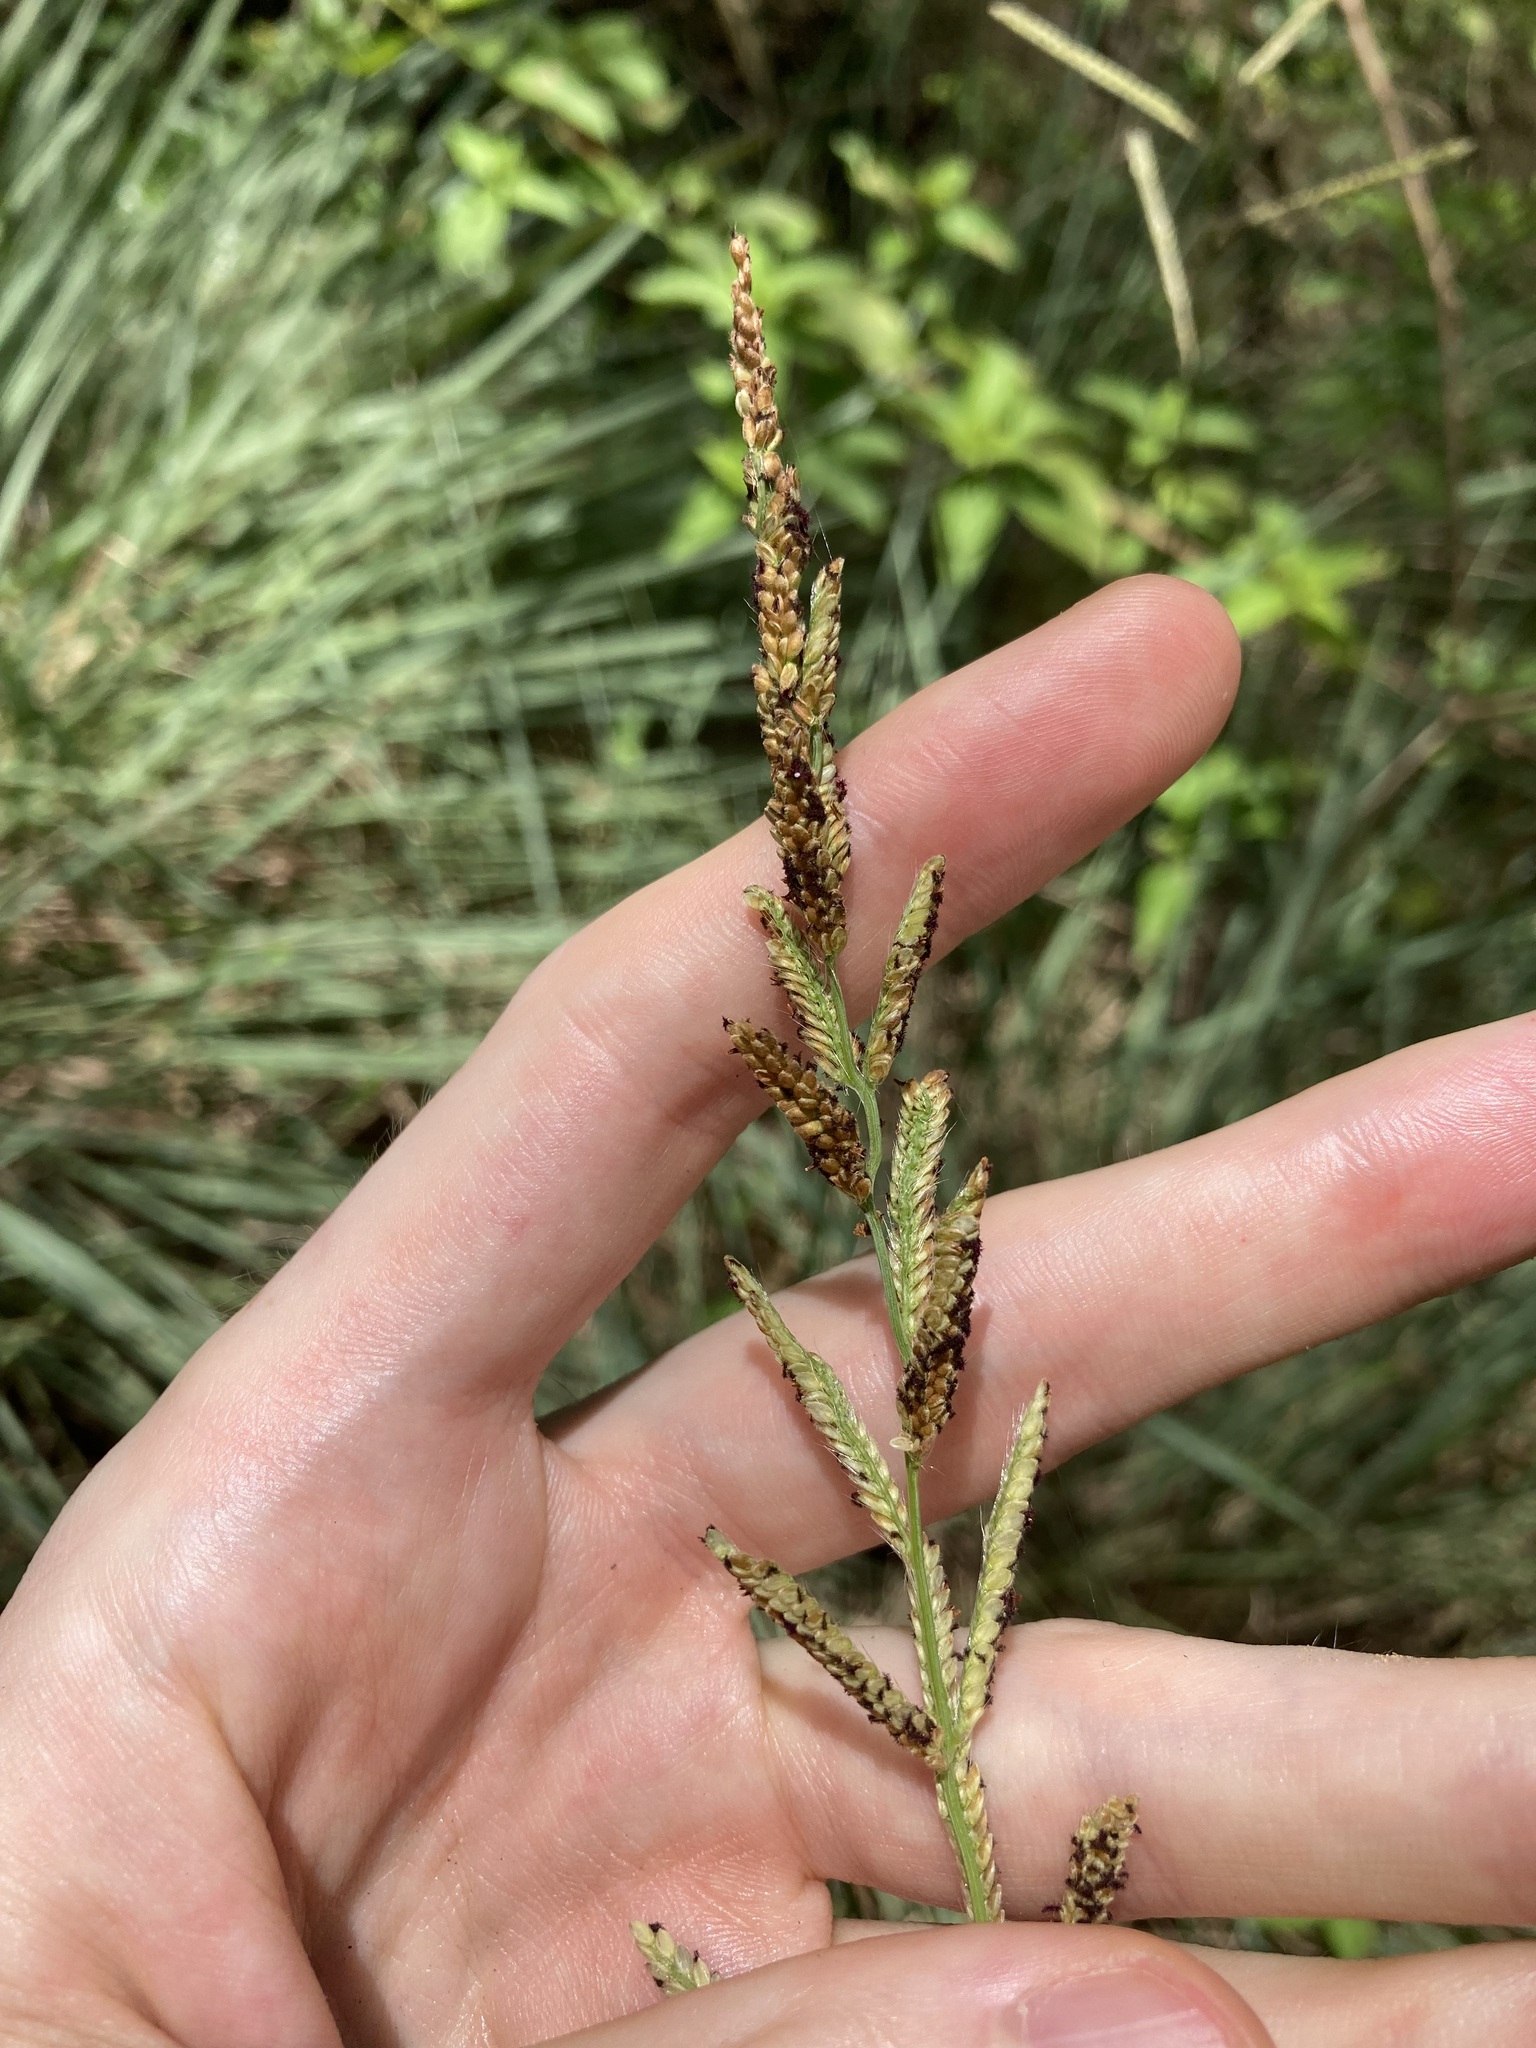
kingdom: Plantae
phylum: Tracheophyta
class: Liliopsida
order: Poales
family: Poaceae
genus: Paspalum
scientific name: Paspalum quadrifarium
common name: Tussock paspalum
